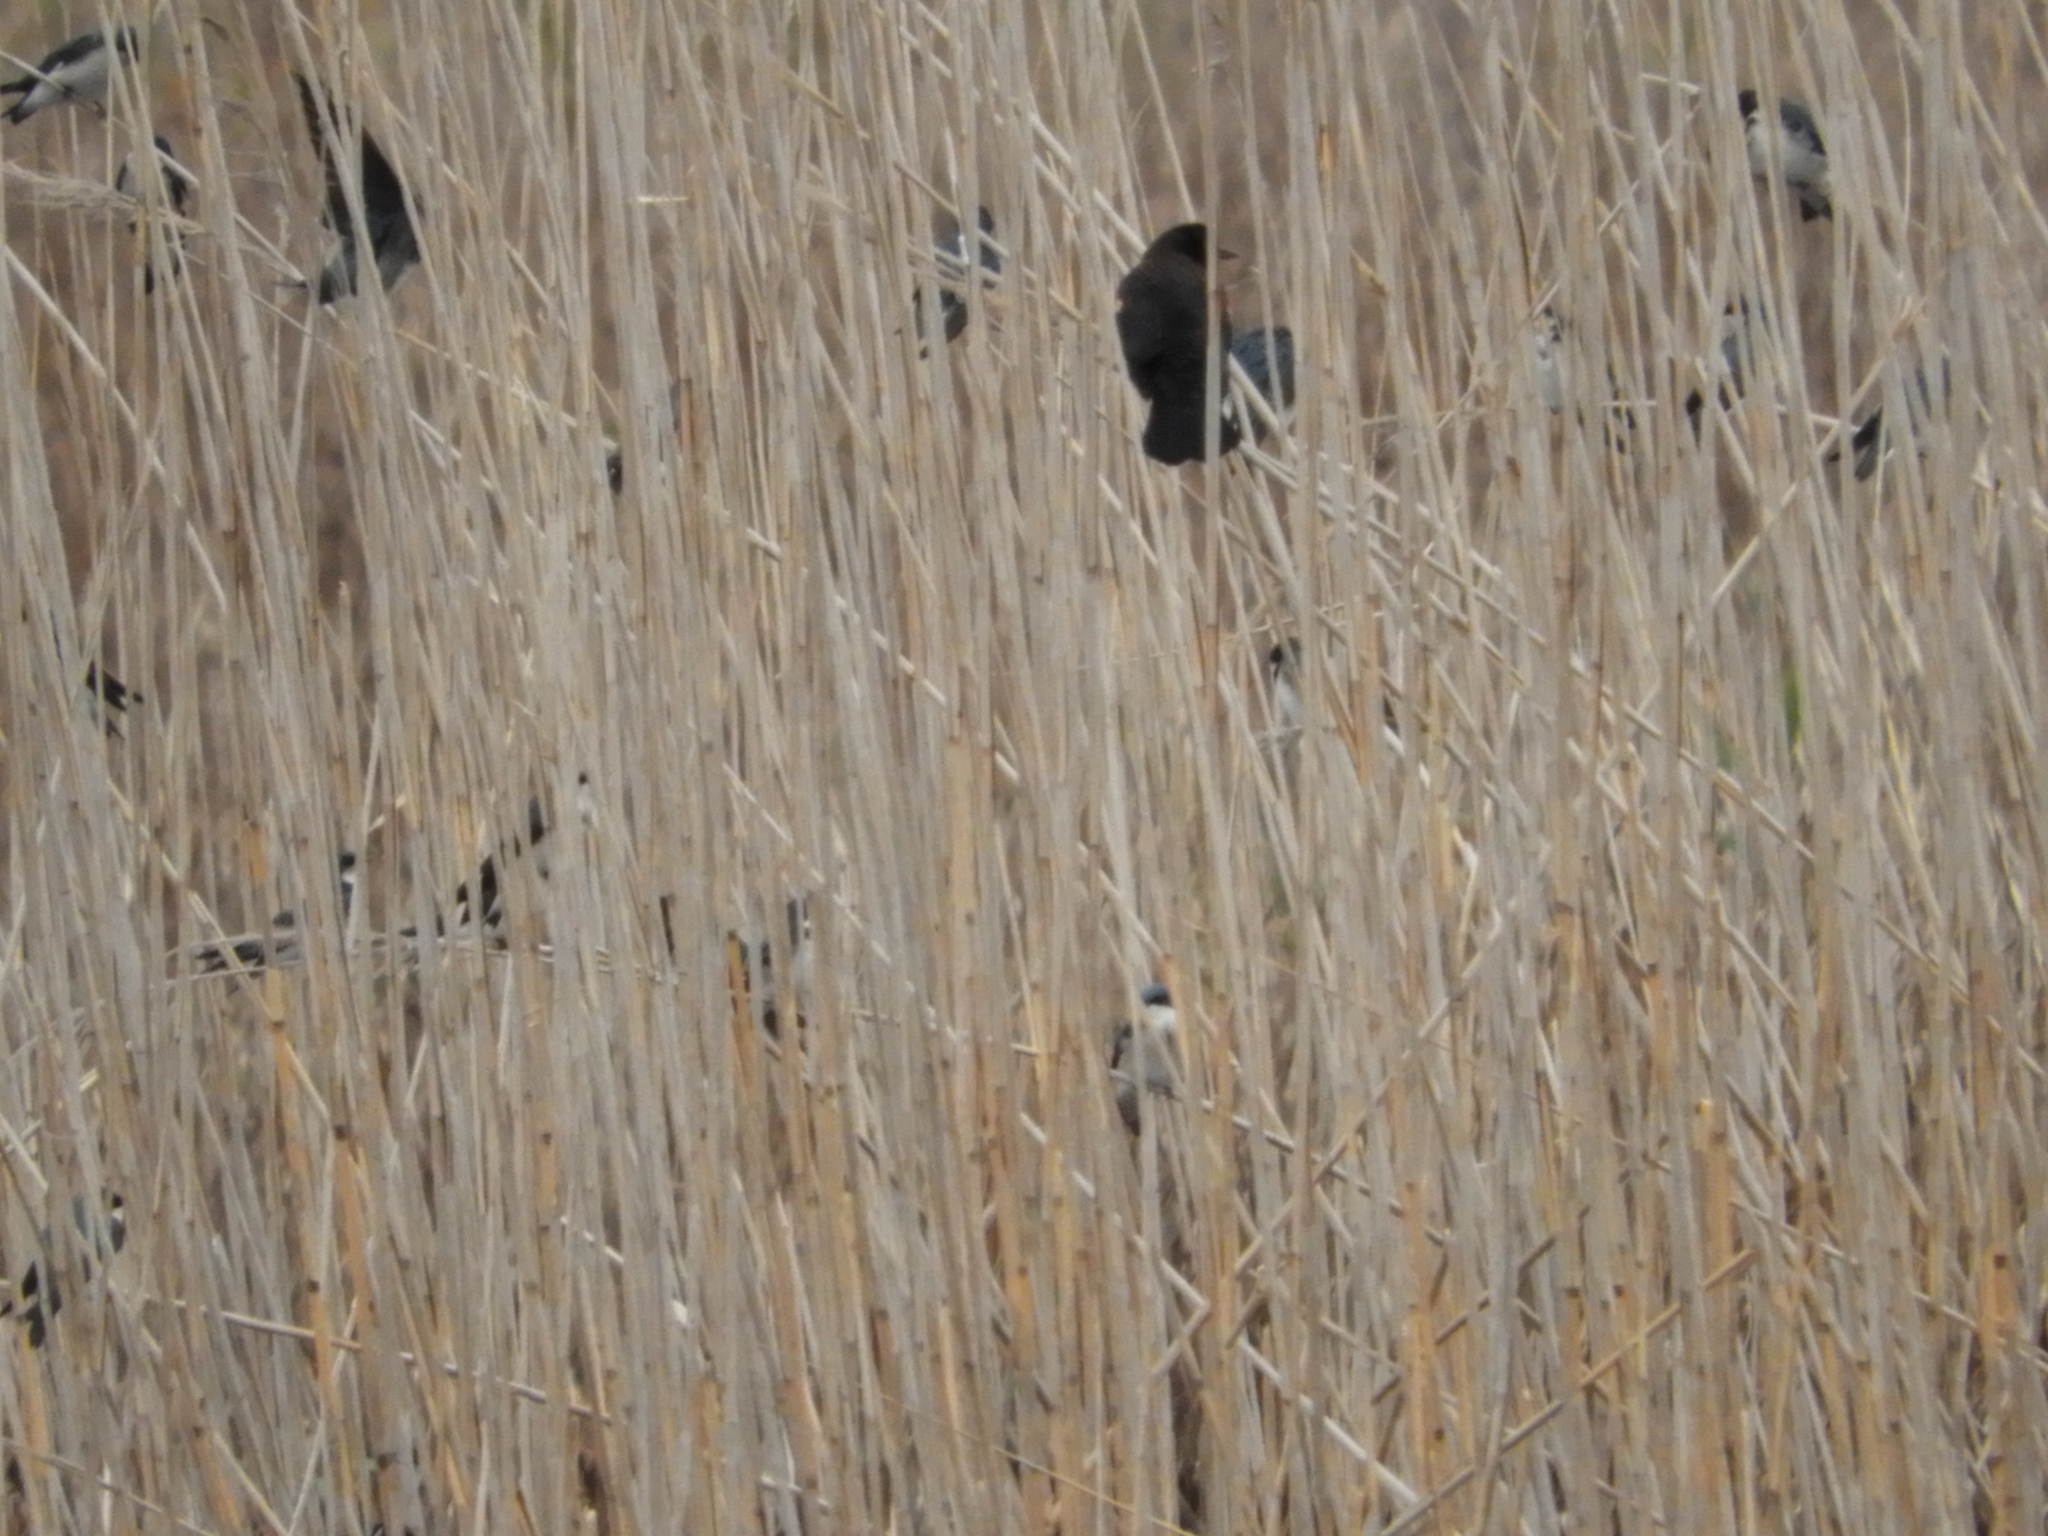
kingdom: Animalia
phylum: Chordata
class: Aves
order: Passeriformes
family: Hirundinidae
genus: Tachycineta
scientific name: Tachycineta bicolor
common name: Tree swallow
